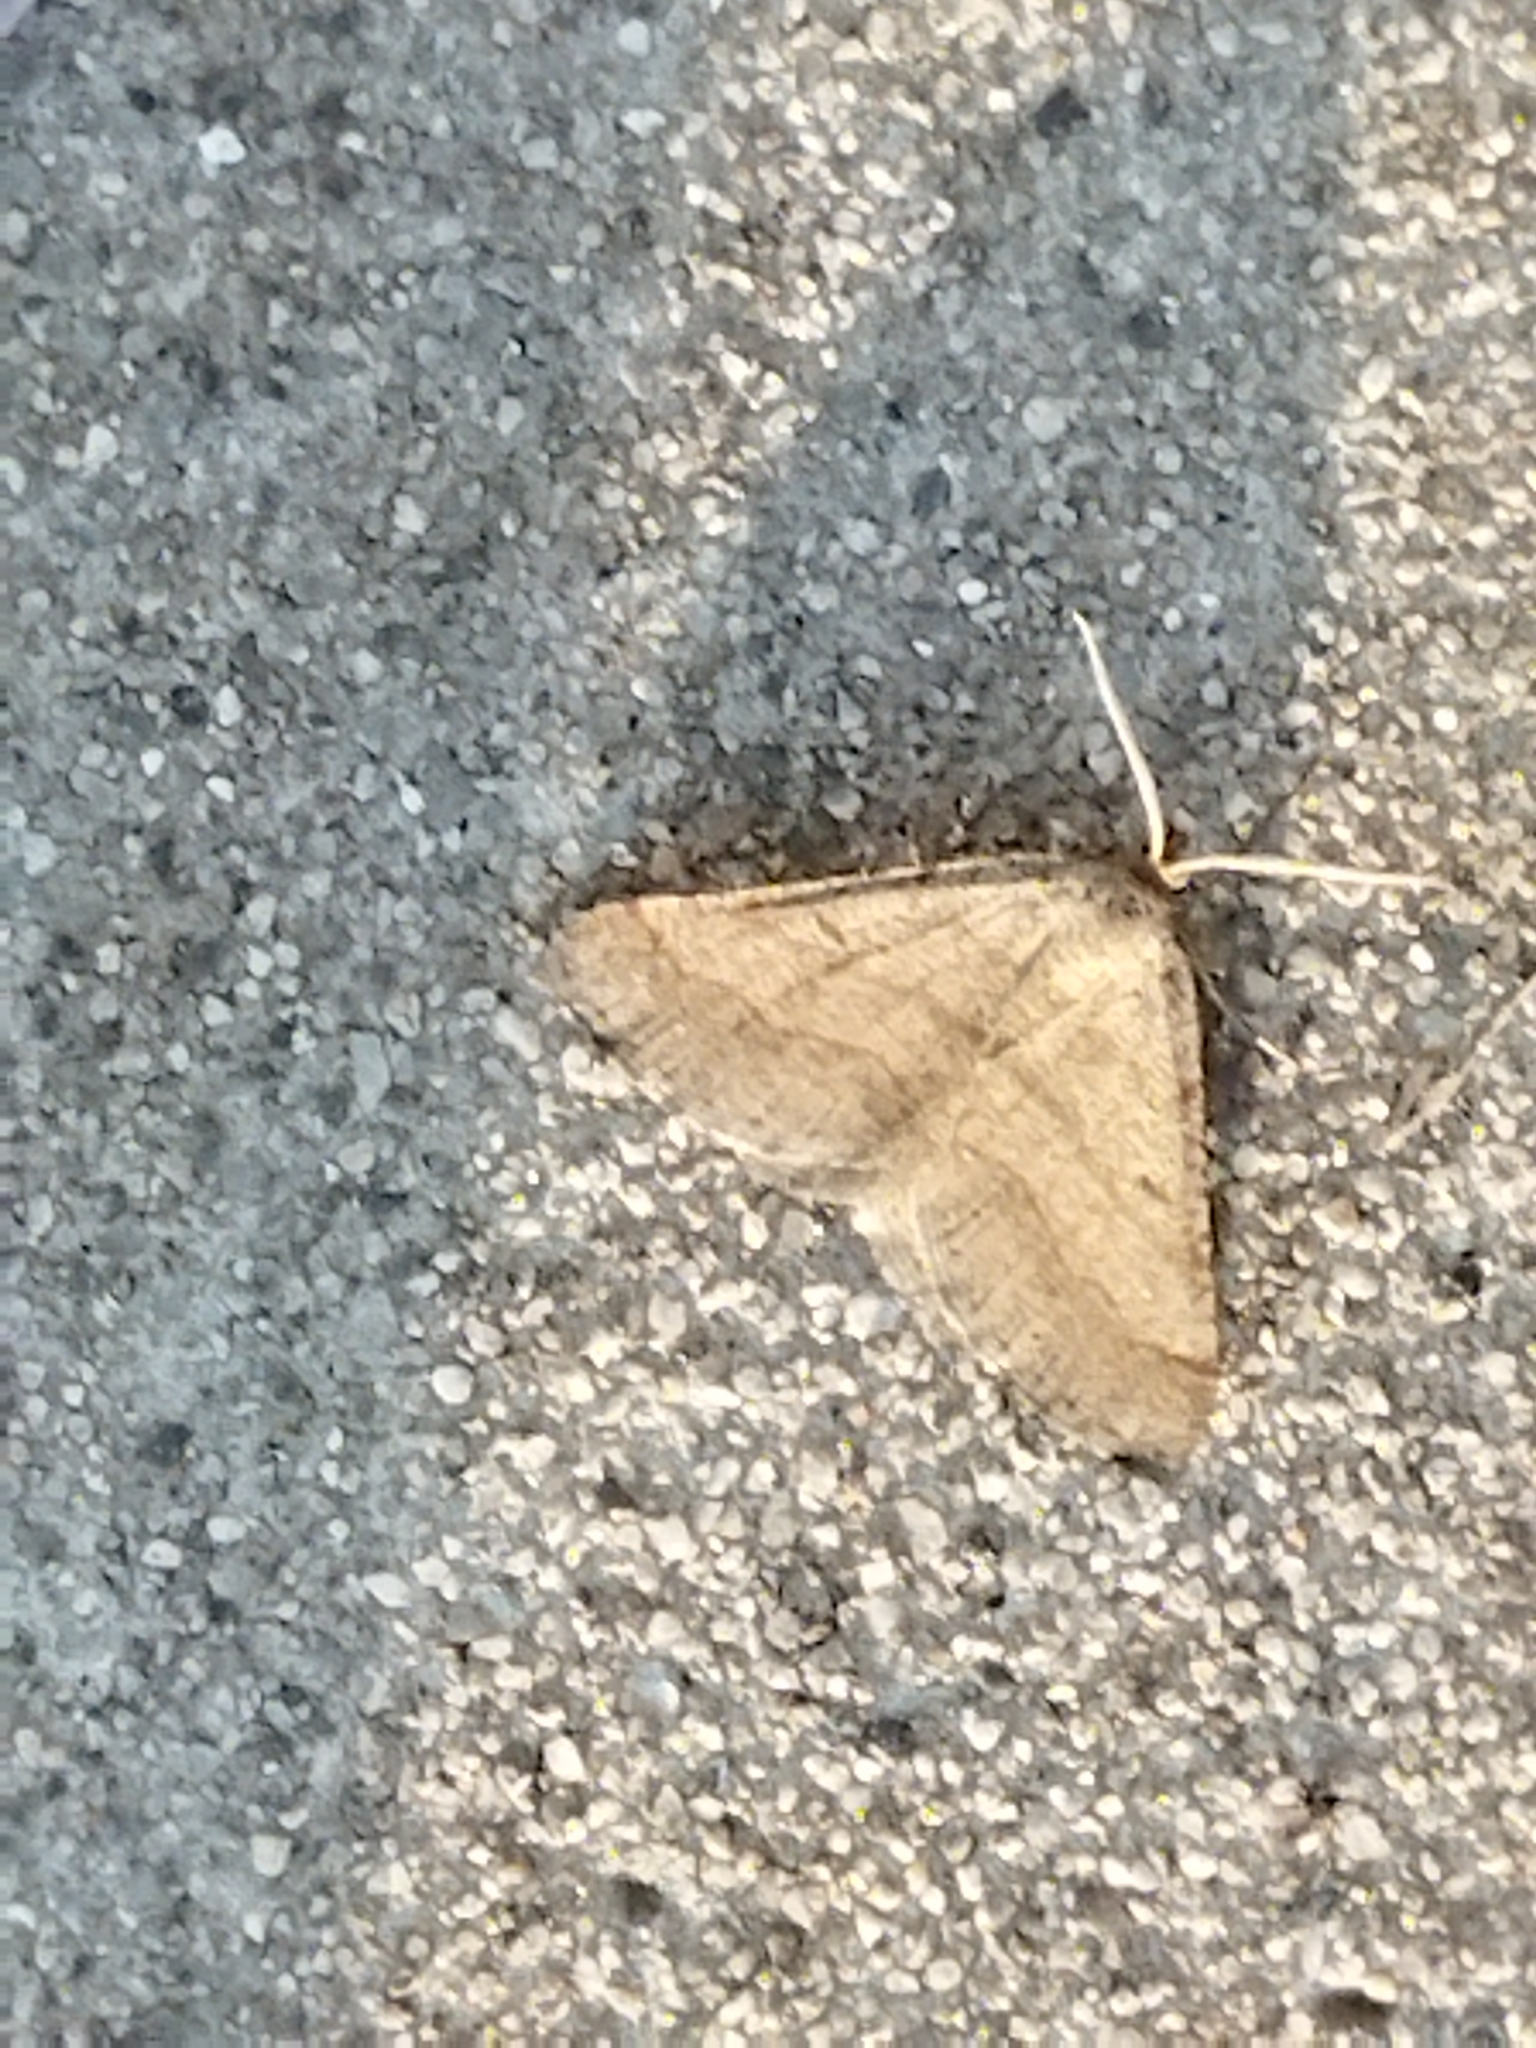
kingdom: Animalia
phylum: Arthropoda
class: Insecta
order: Lepidoptera
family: Geometridae
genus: Tephrina
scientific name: Tephrina murinaria
